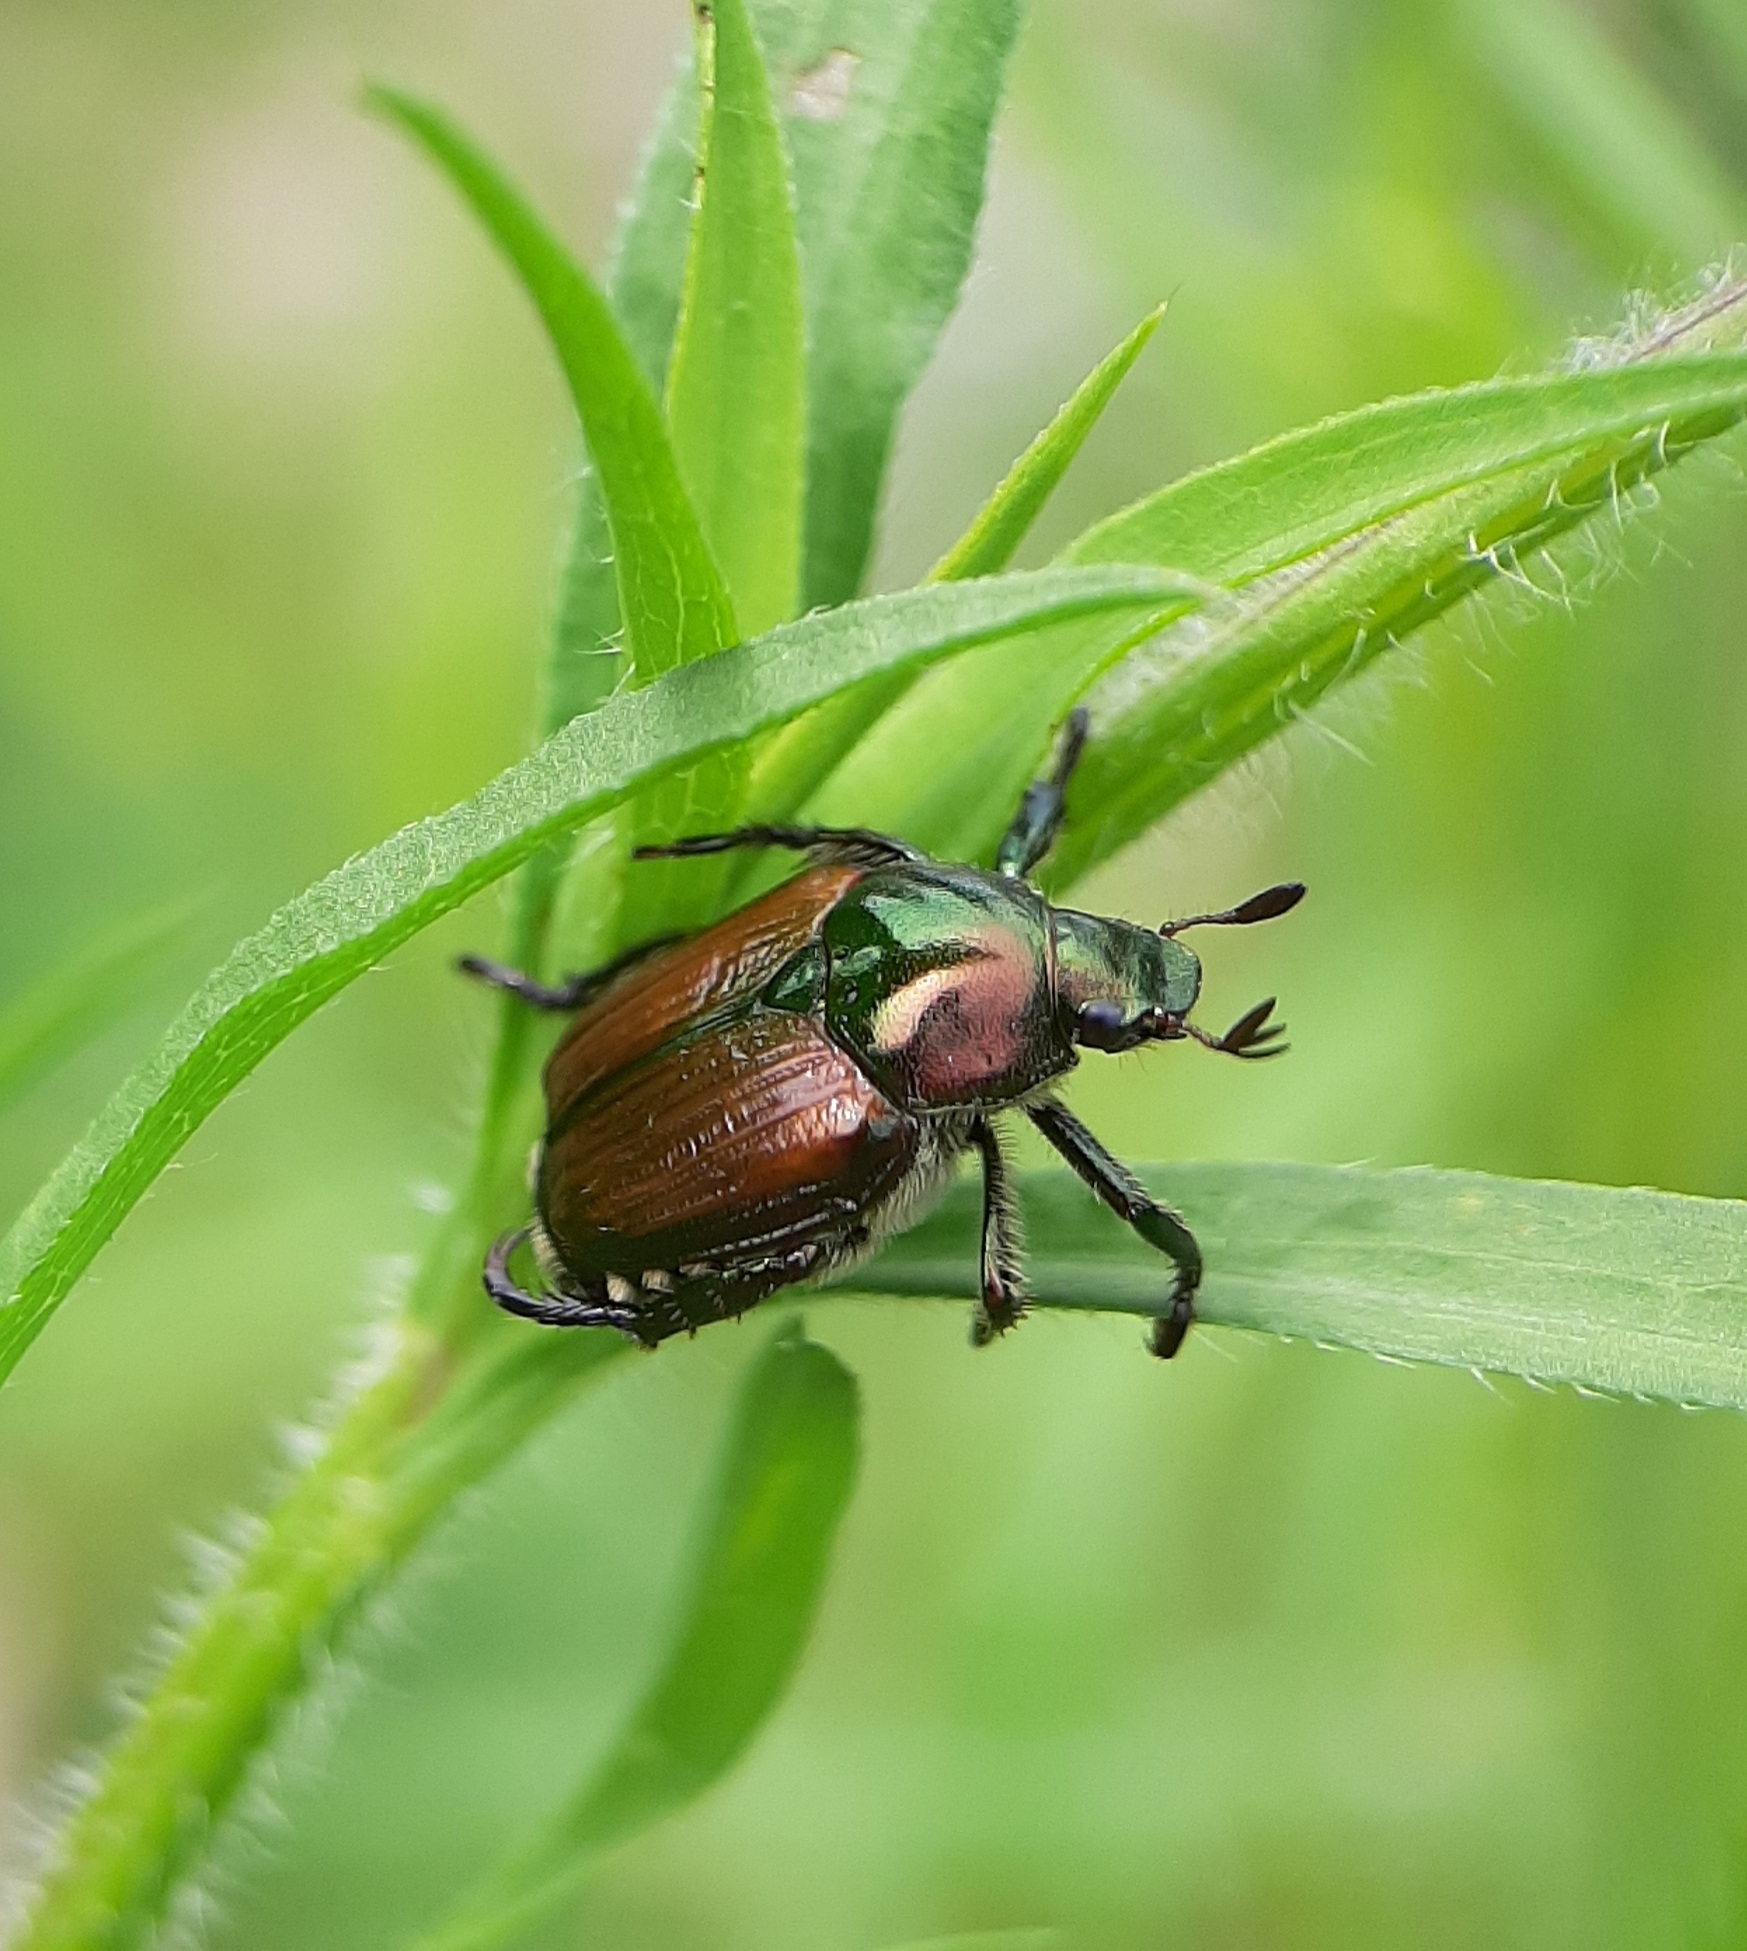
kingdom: Animalia
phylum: Arthropoda
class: Insecta
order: Coleoptera
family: Scarabaeidae
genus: Popillia
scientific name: Popillia japonica
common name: Japanese beetle
